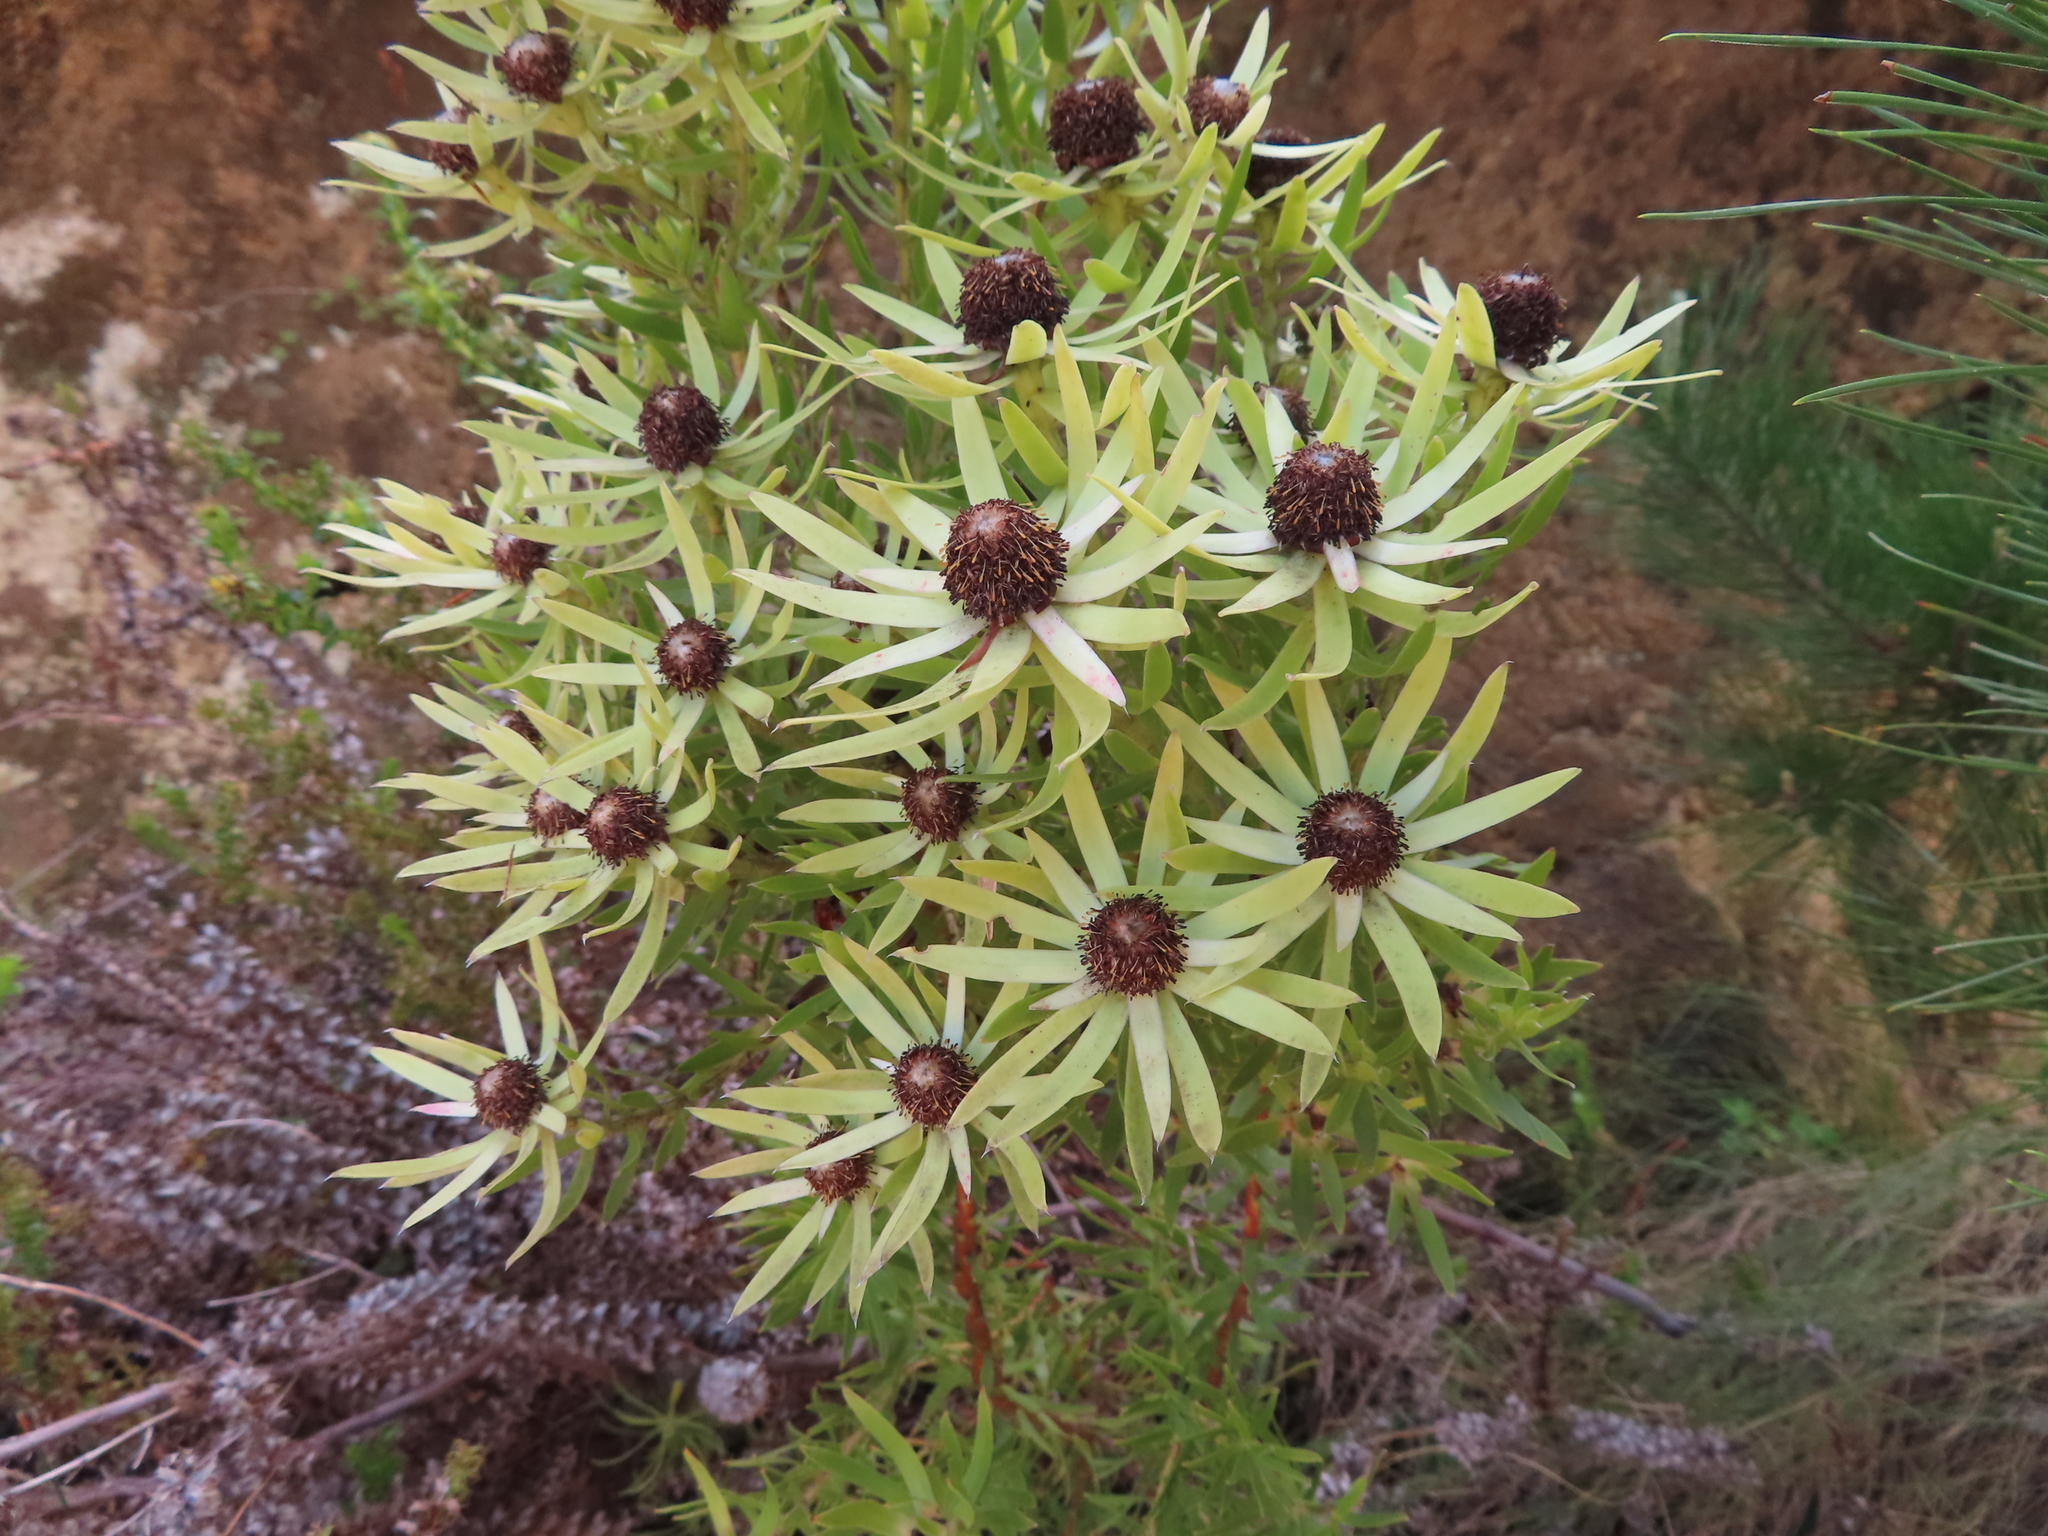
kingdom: Plantae
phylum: Tracheophyta
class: Magnoliopsida
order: Proteales
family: Proteaceae
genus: Leucadendron
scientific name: Leucadendron spissifolium
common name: Spear-leaf conebush
